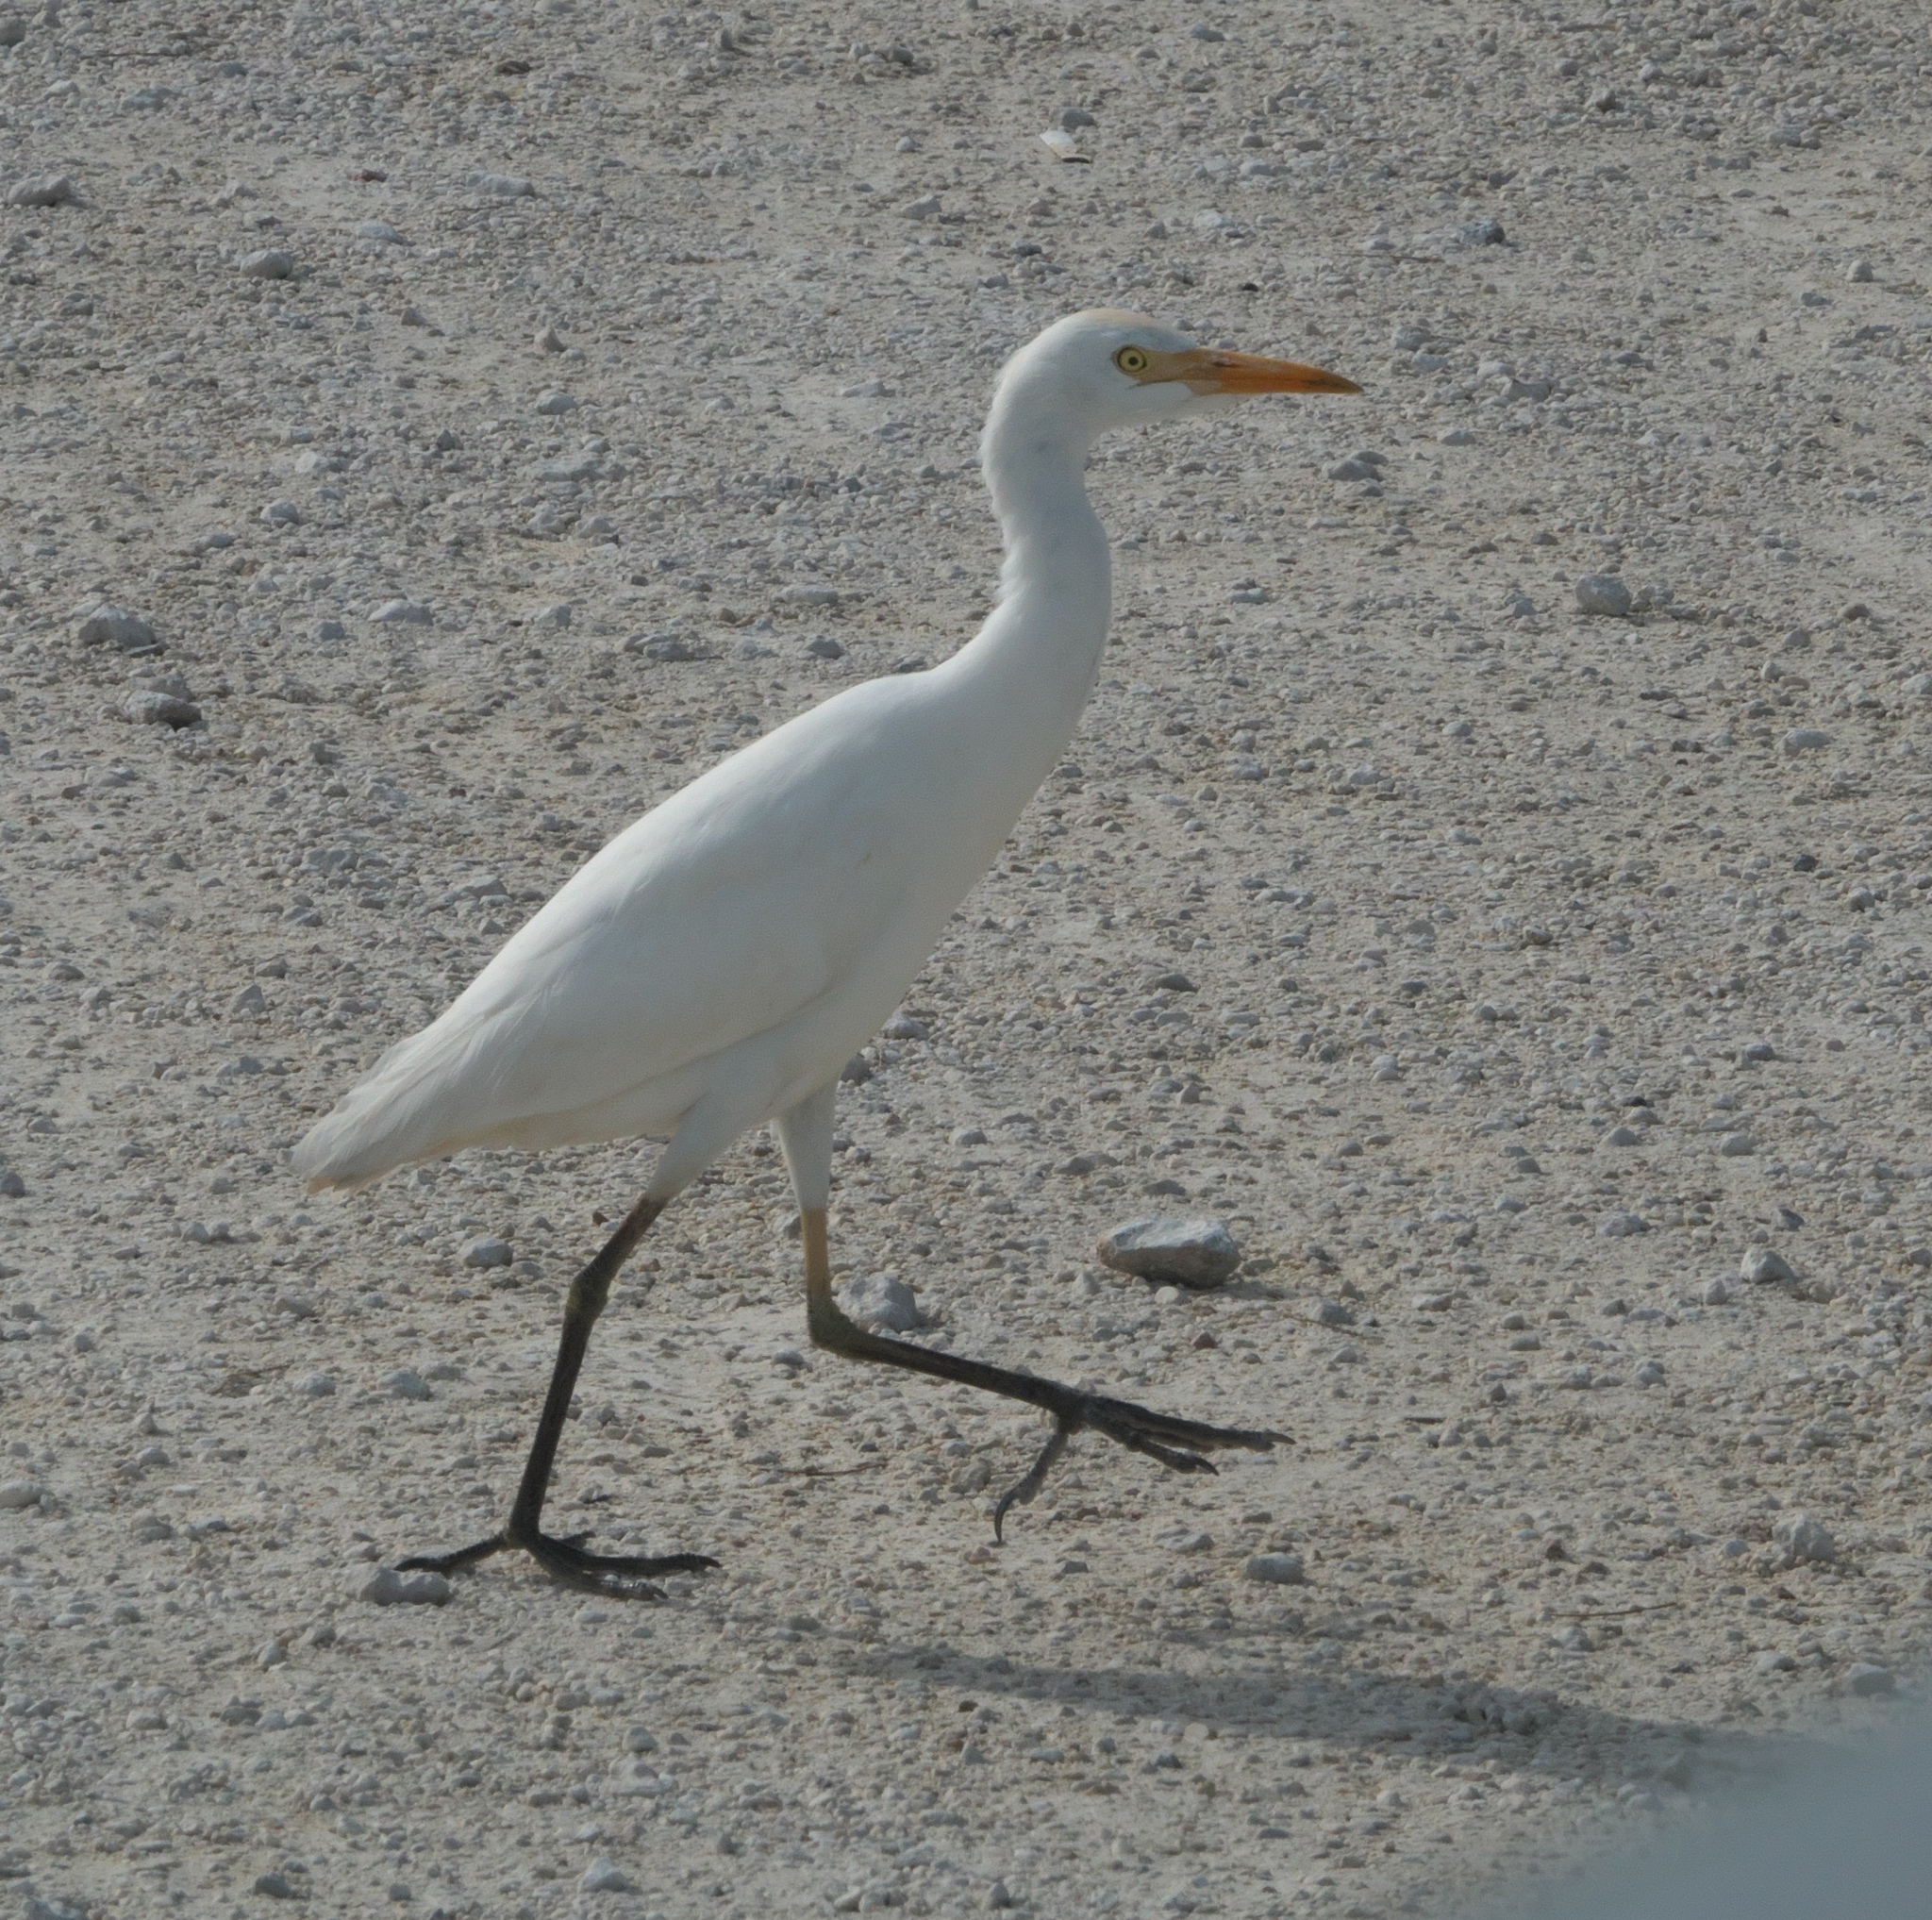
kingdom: Animalia
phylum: Chordata
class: Aves
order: Pelecaniformes
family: Ardeidae
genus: Bubulcus
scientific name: Bubulcus ibis
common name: Cattle egret
